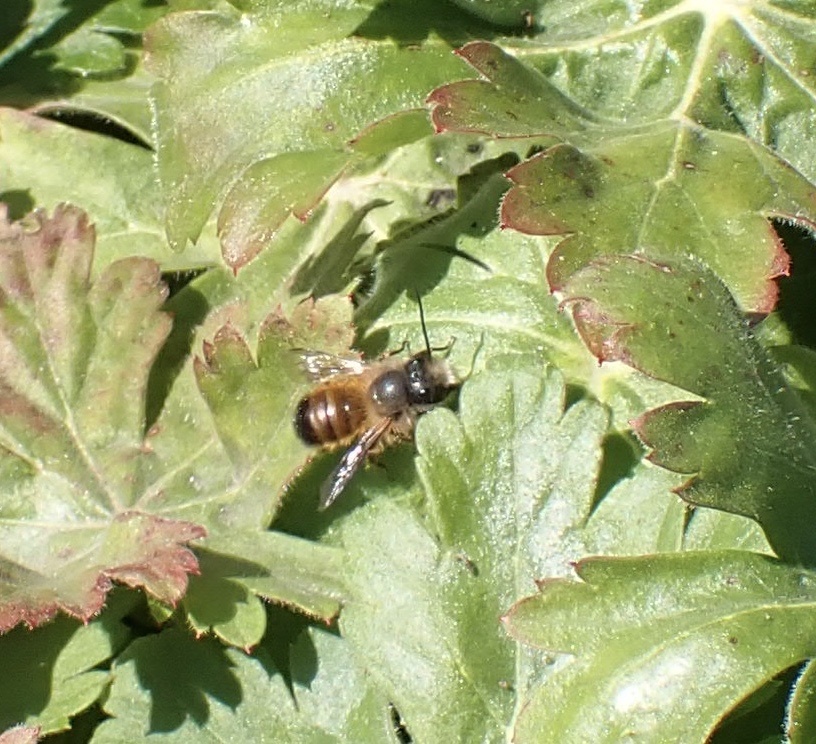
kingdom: Animalia
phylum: Arthropoda
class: Insecta
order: Hymenoptera
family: Megachilidae
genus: Osmia
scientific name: Osmia bicornis
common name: Red mason bee
